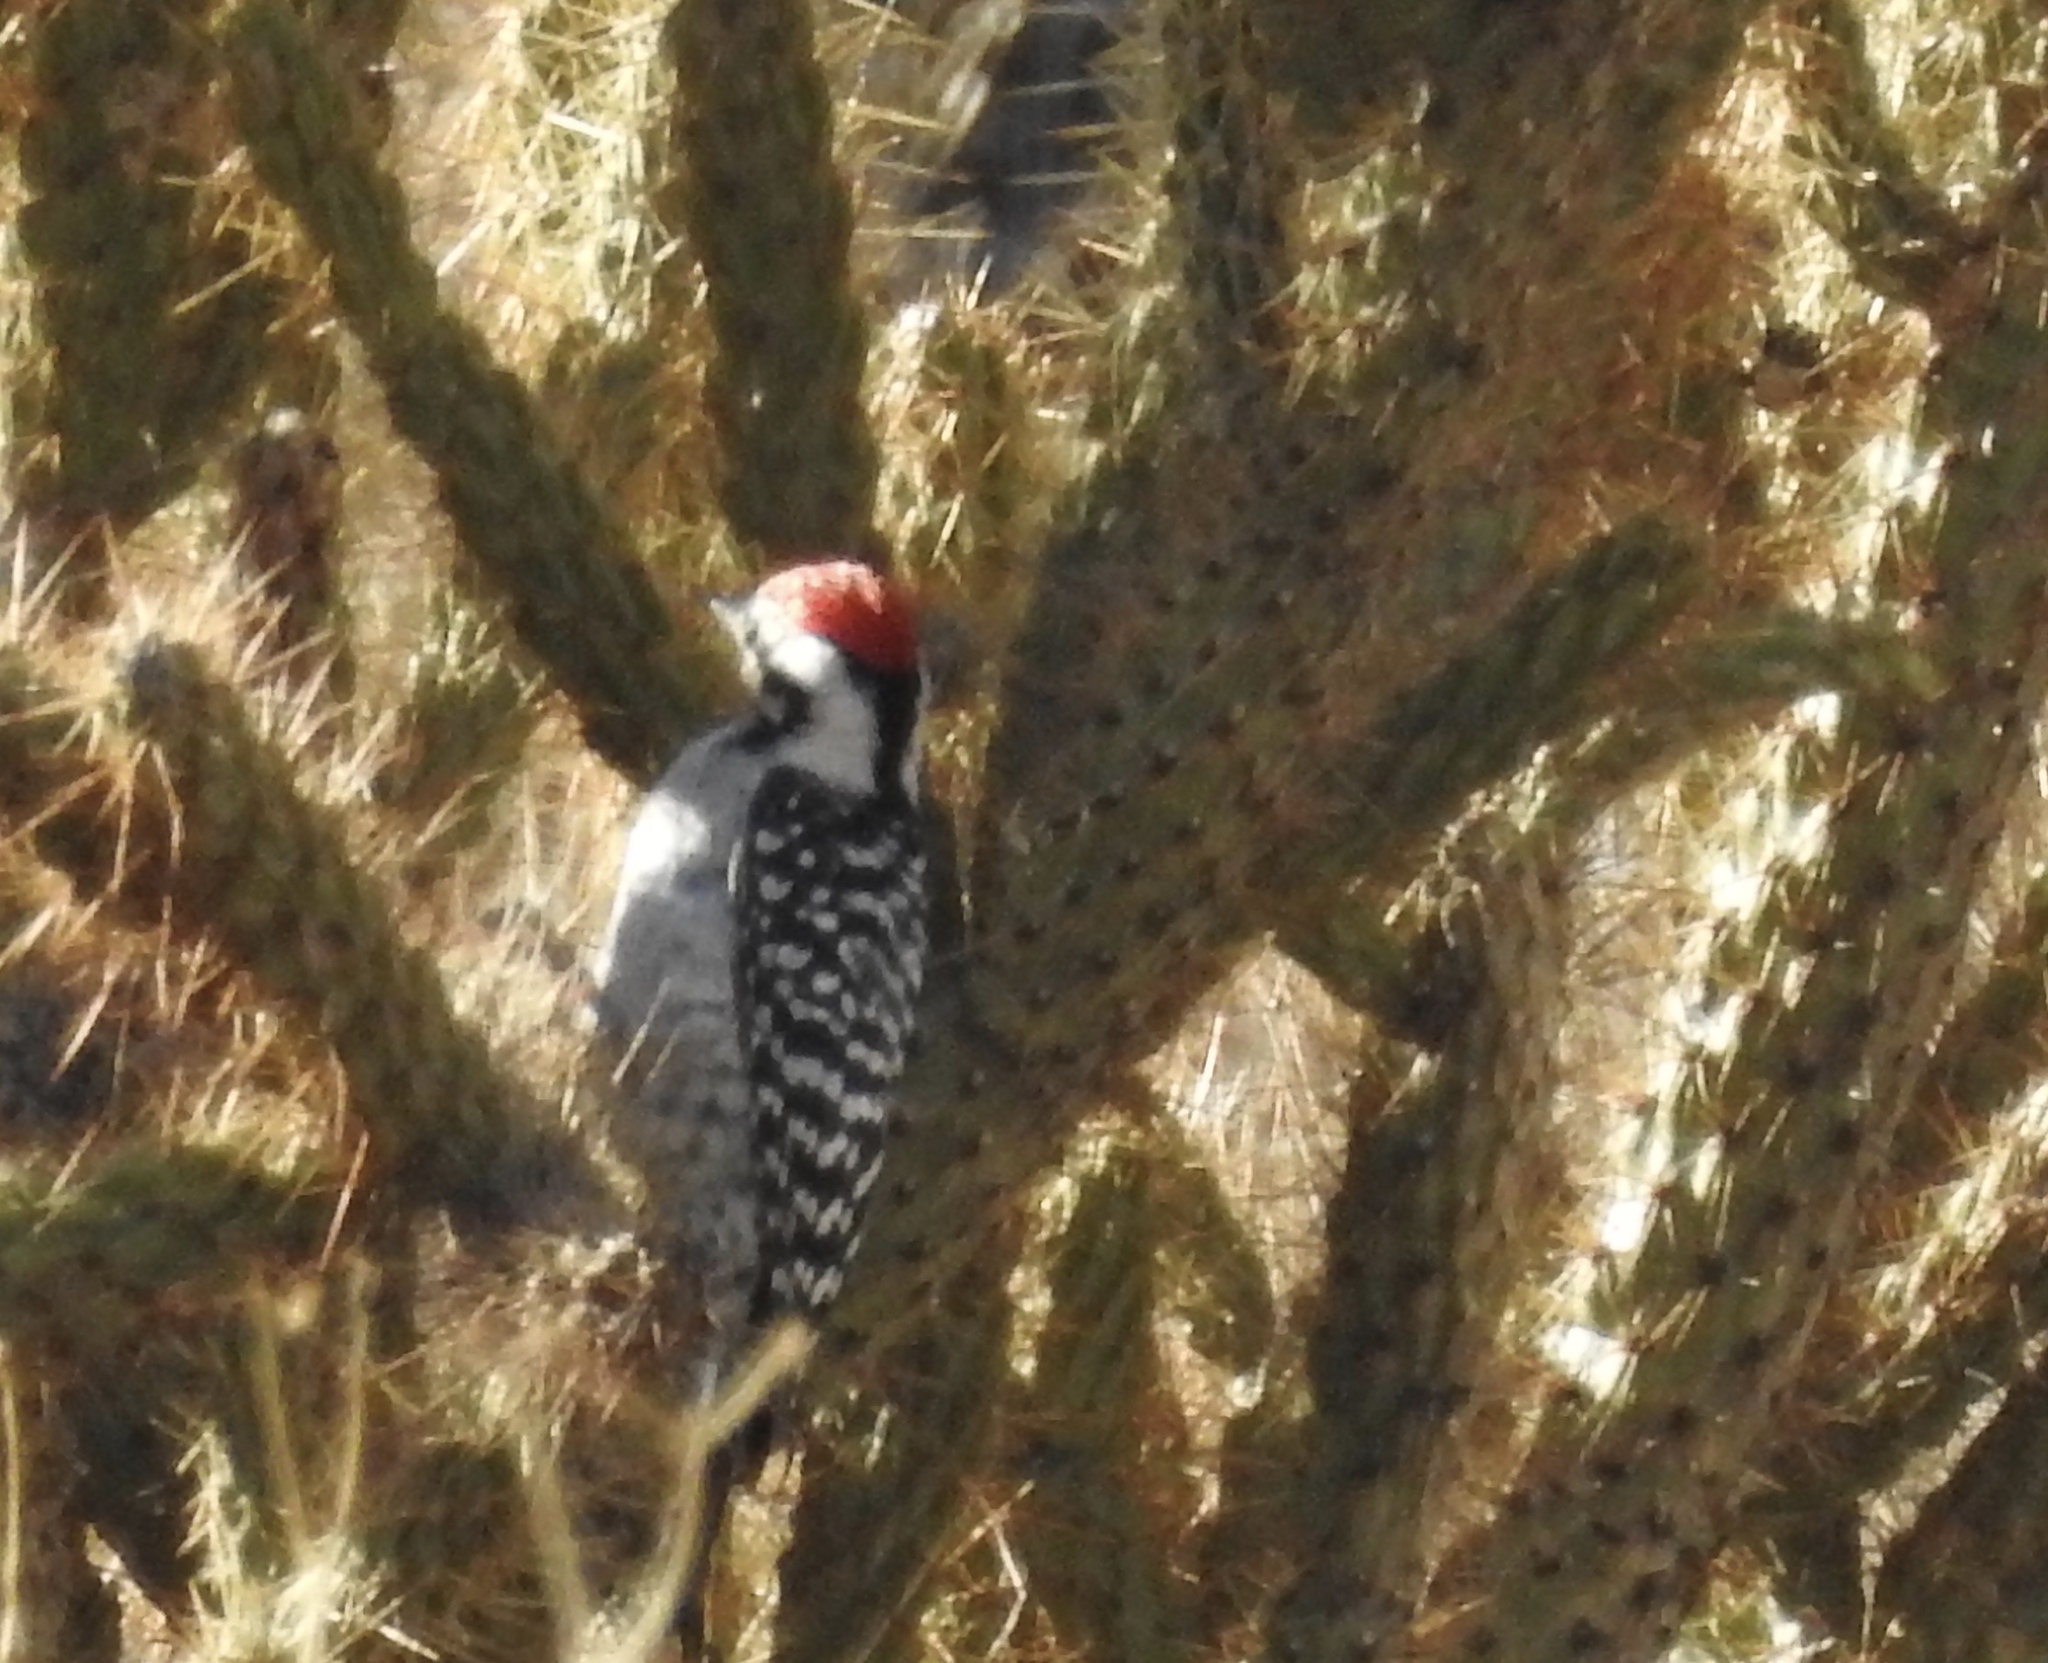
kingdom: Animalia
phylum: Chordata
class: Aves
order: Piciformes
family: Picidae
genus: Dryobates
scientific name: Dryobates scalaris
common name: Ladder-backed woodpecker
